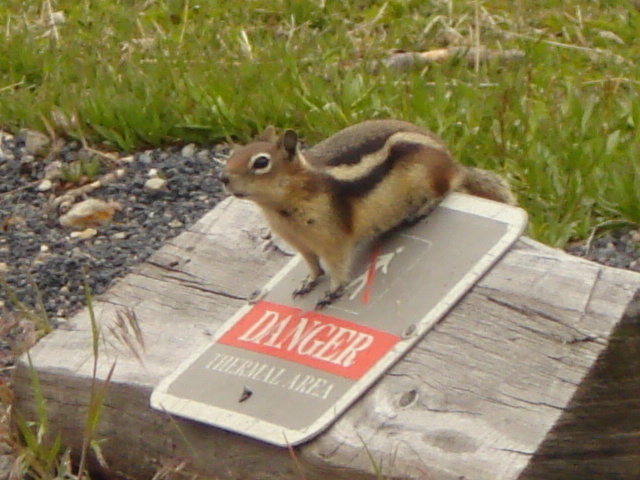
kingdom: Animalia
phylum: Chordata
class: Mammalia
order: Rodentia
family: Sciuridae
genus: Callospermophilus
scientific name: Callospermophilus lateralis
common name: Golden-mantled ground squirrel
